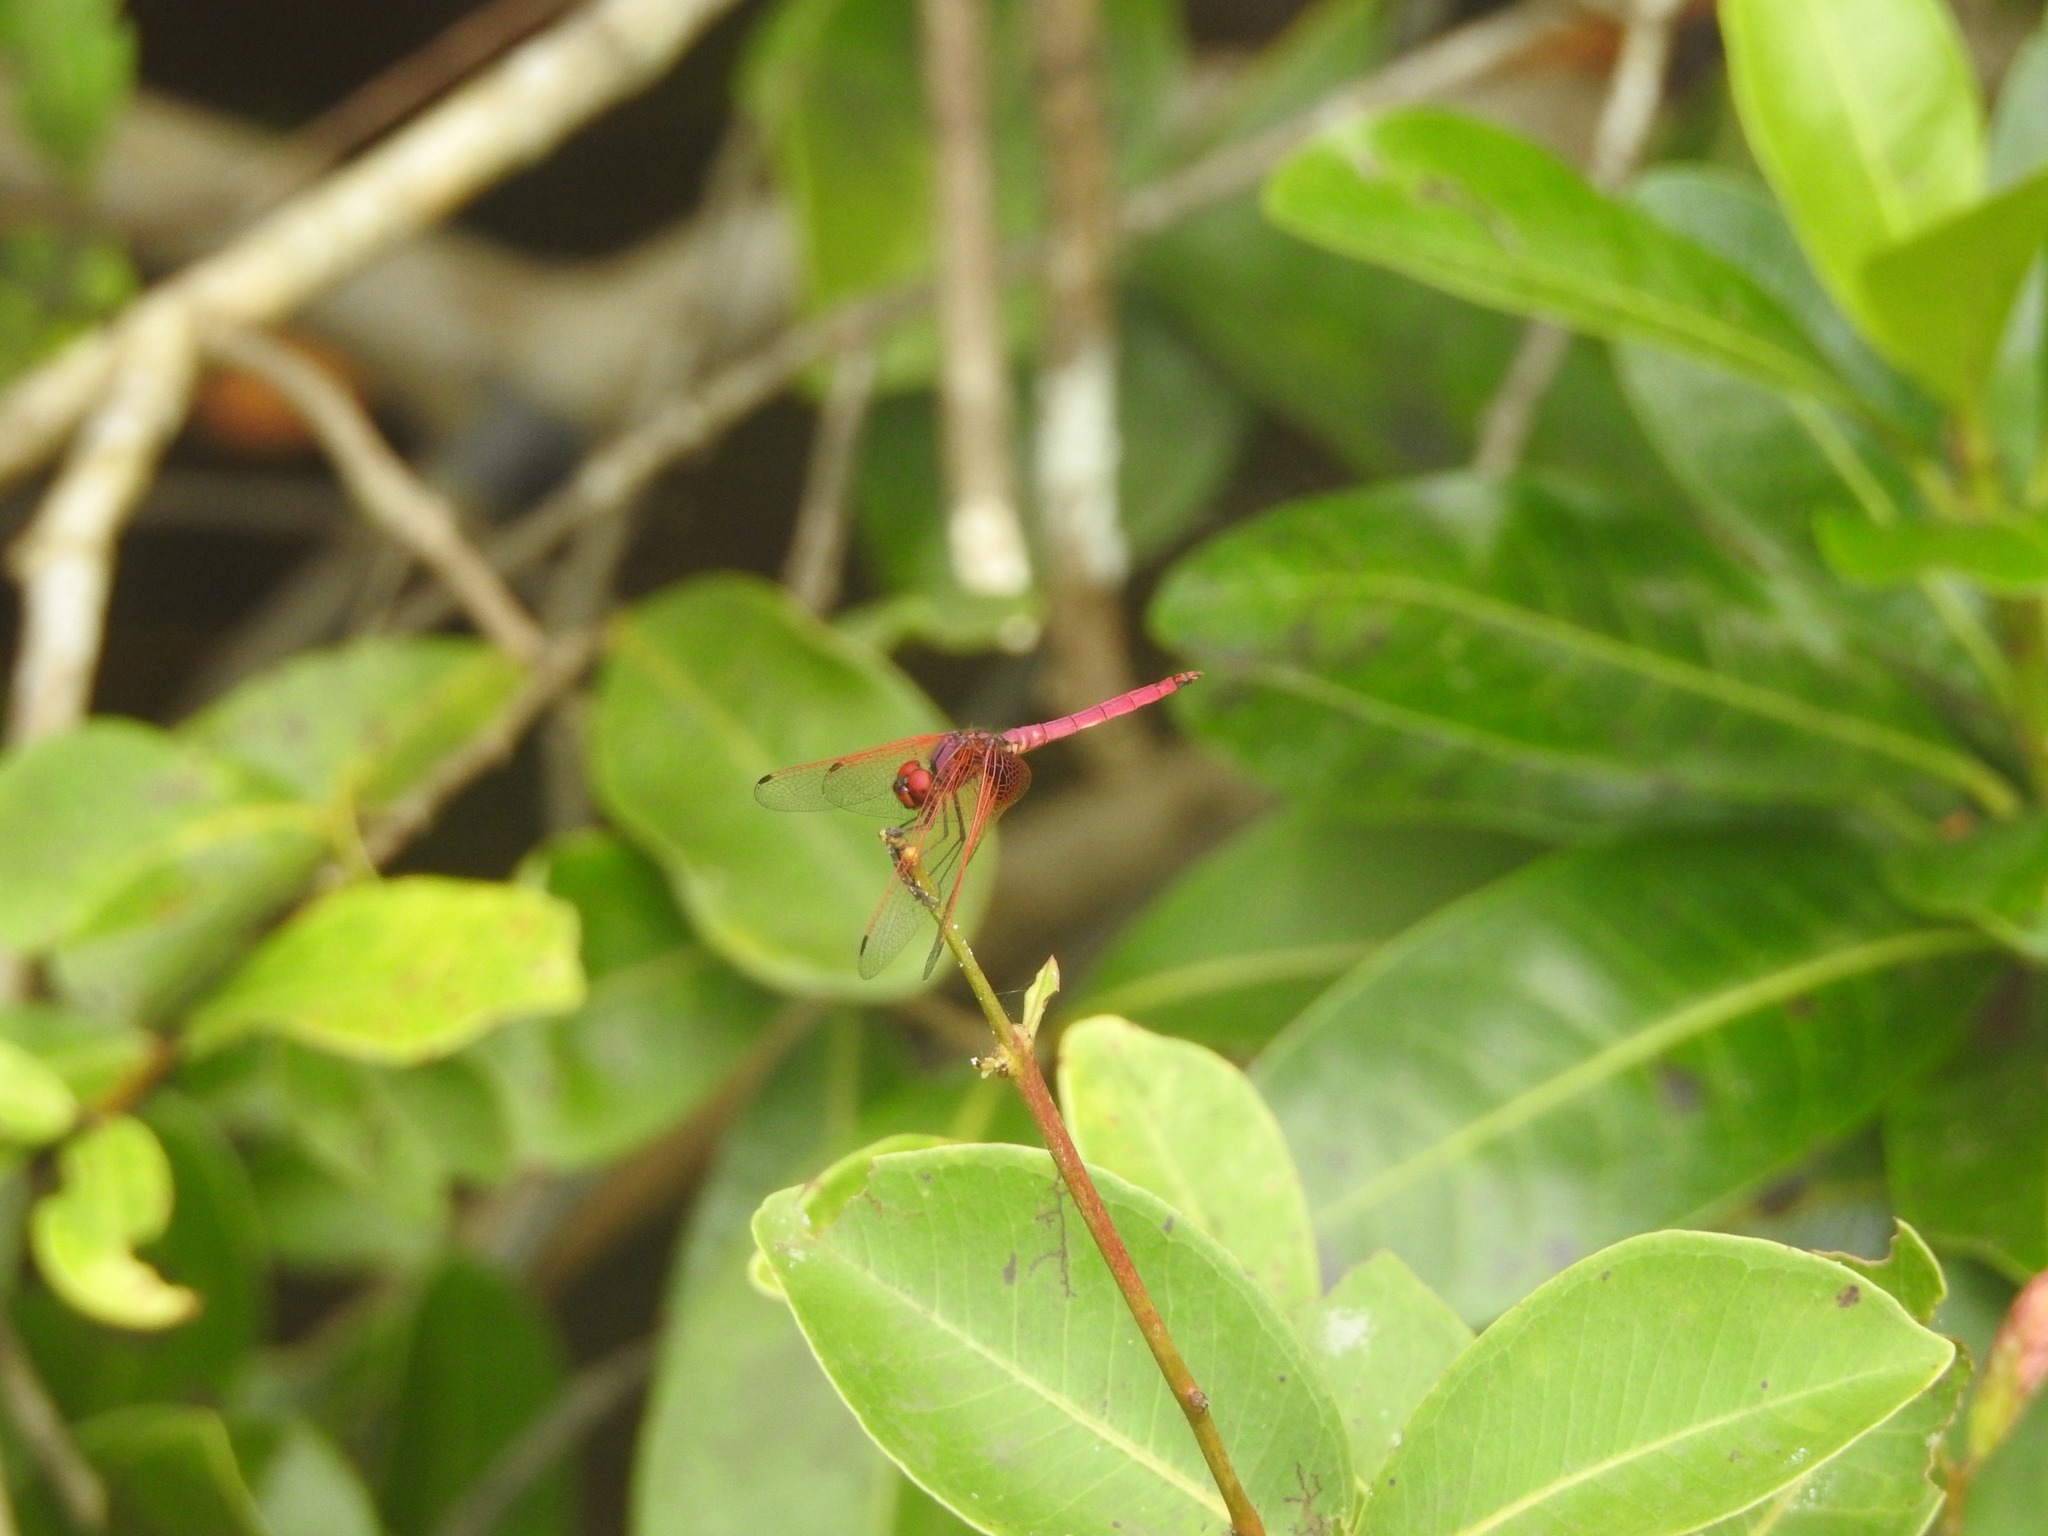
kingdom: Animalia
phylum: Arthropoda
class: Insecta
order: Odonata
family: Libellulidae
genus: Trithemis
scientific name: Trithemis aurora
